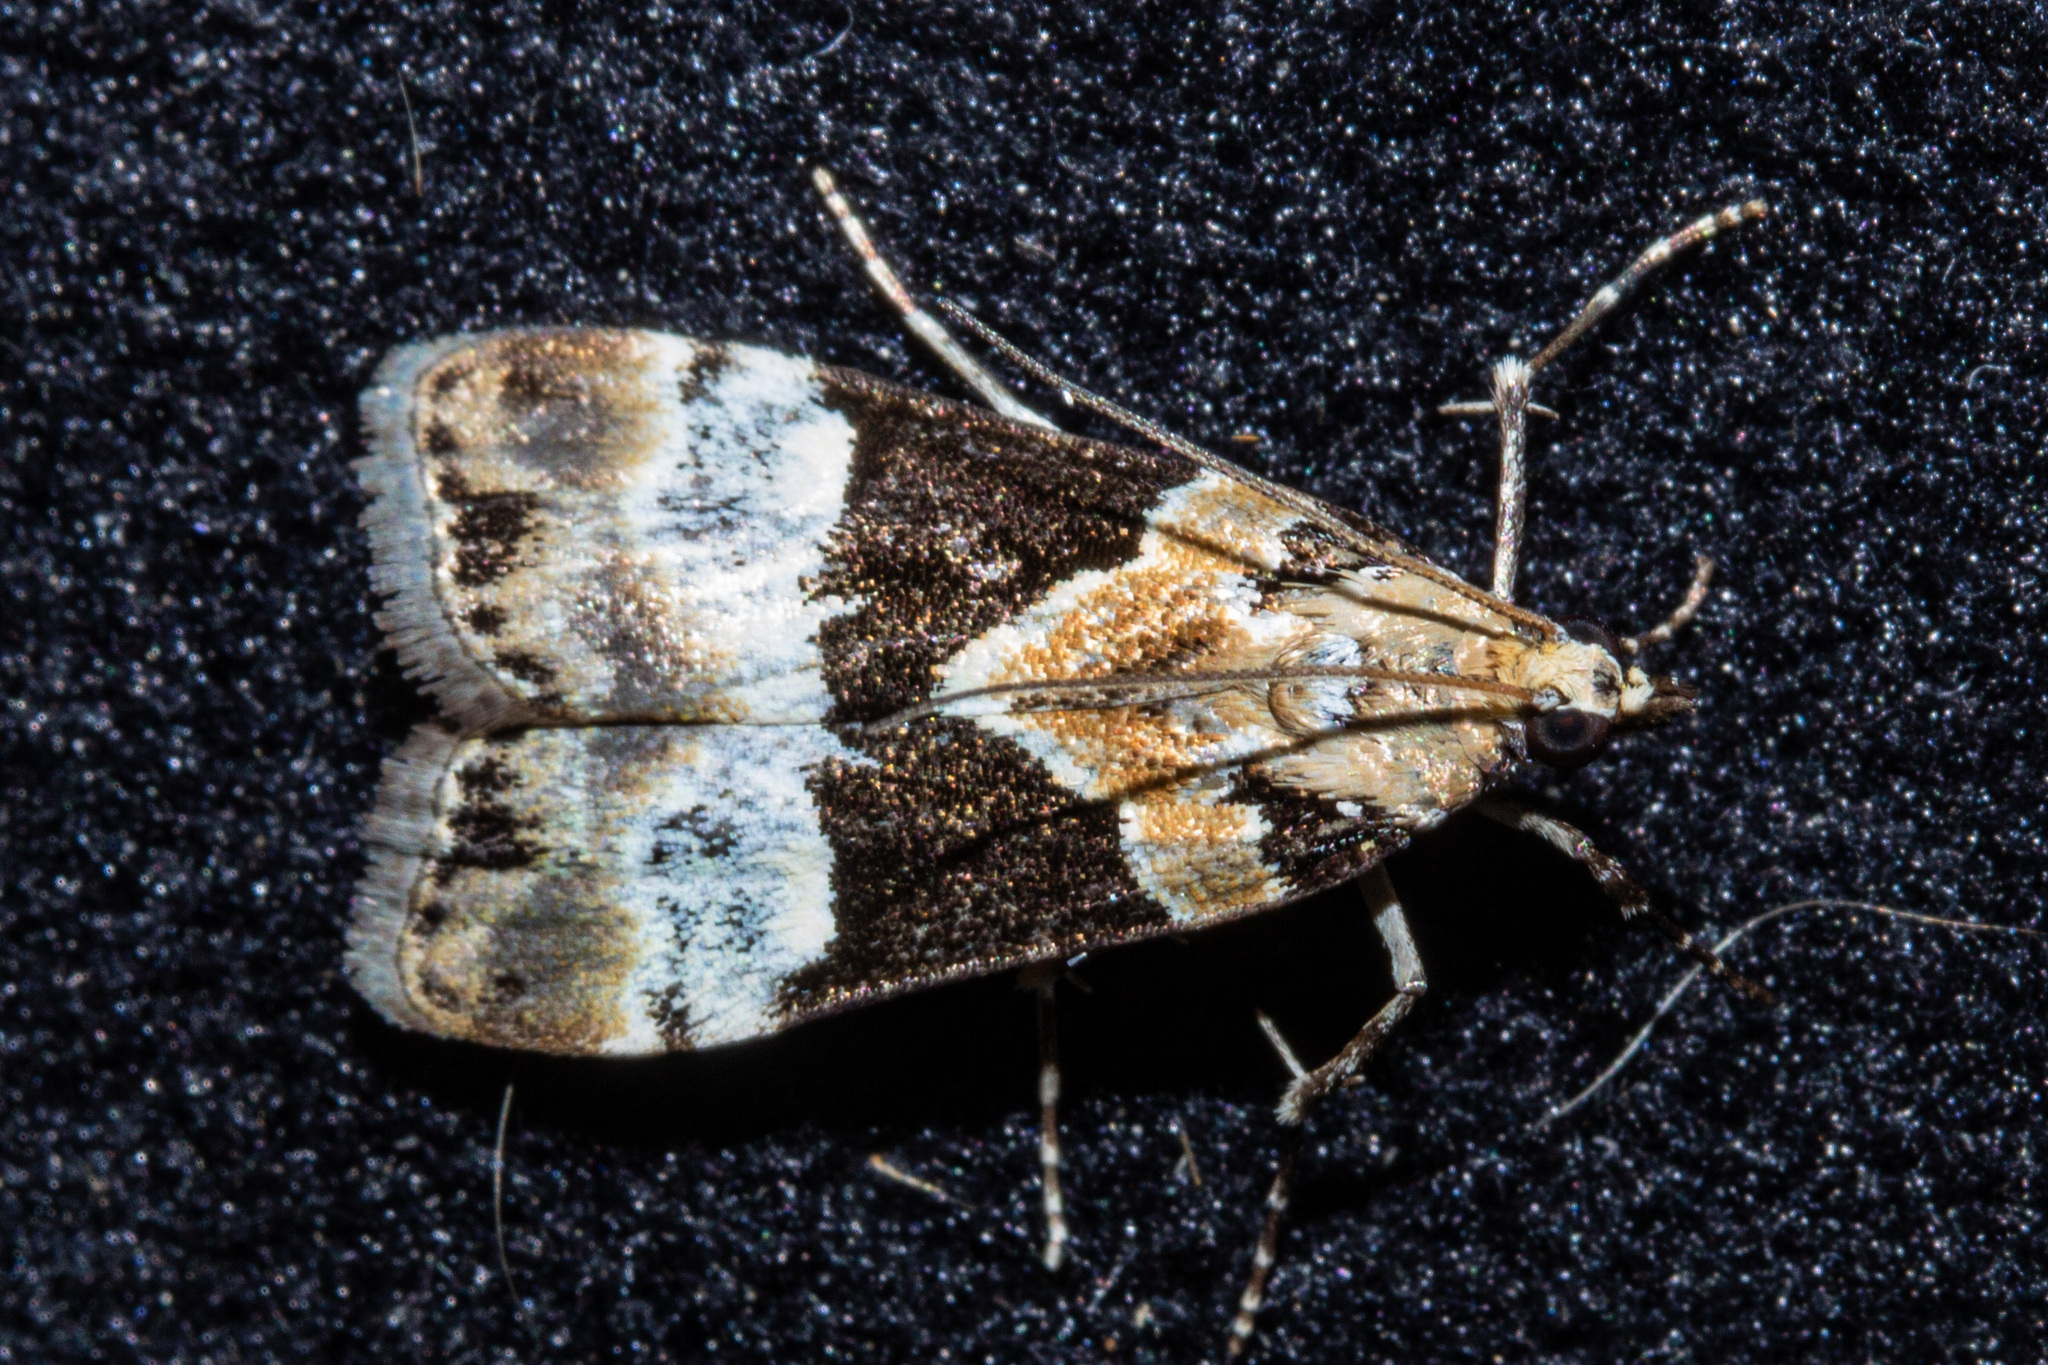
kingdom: Animalia
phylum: Arthropoda
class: Insecta
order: Lepidoptera
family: Crambidae
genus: Eudonia
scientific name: Eudonia aspidota
